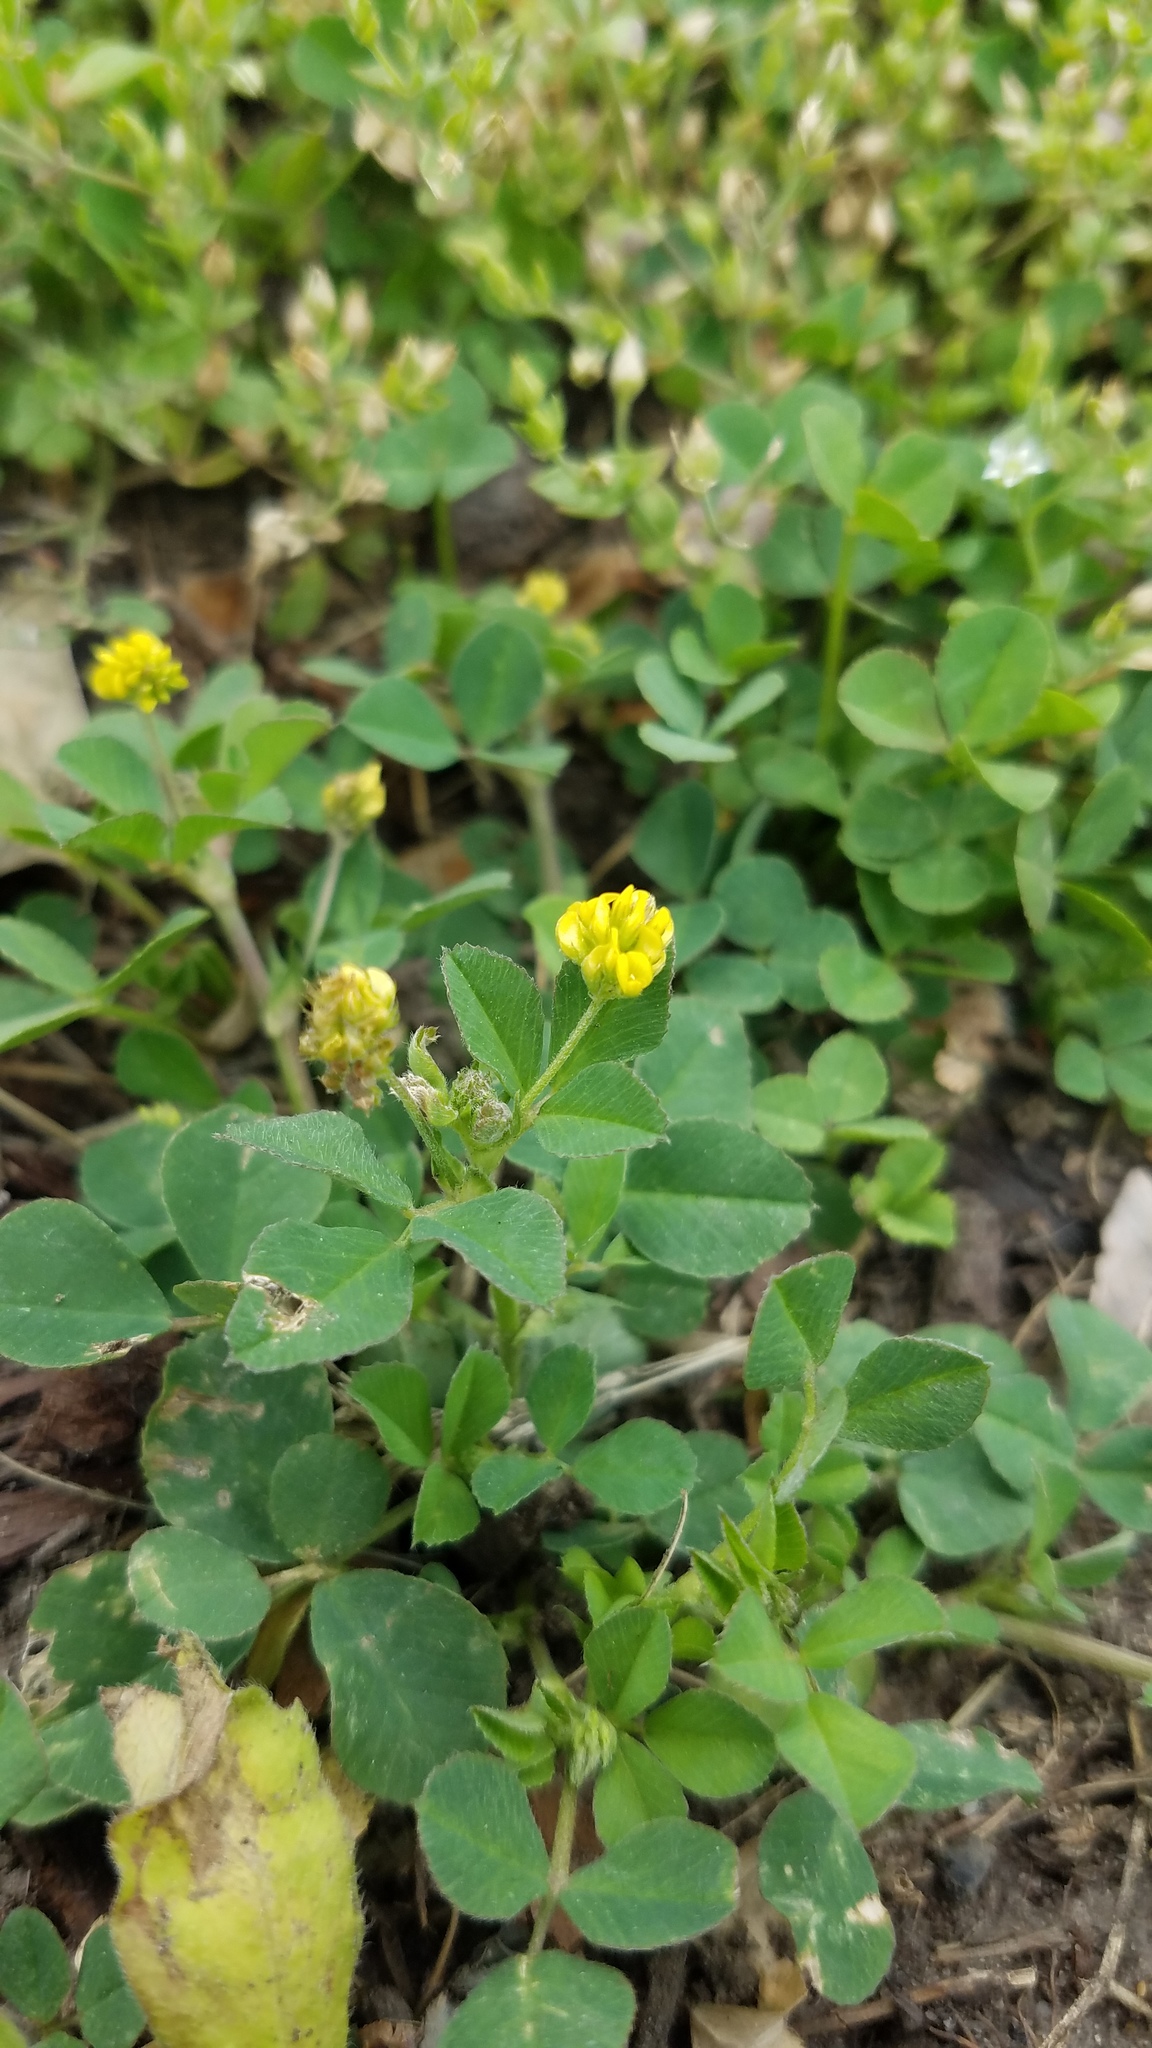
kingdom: Plantae
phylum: Tracheophyta
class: Magnoliopsida
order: Fabales
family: Fabaceae
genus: Medicago
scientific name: Medicago lupulina
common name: Black medick
